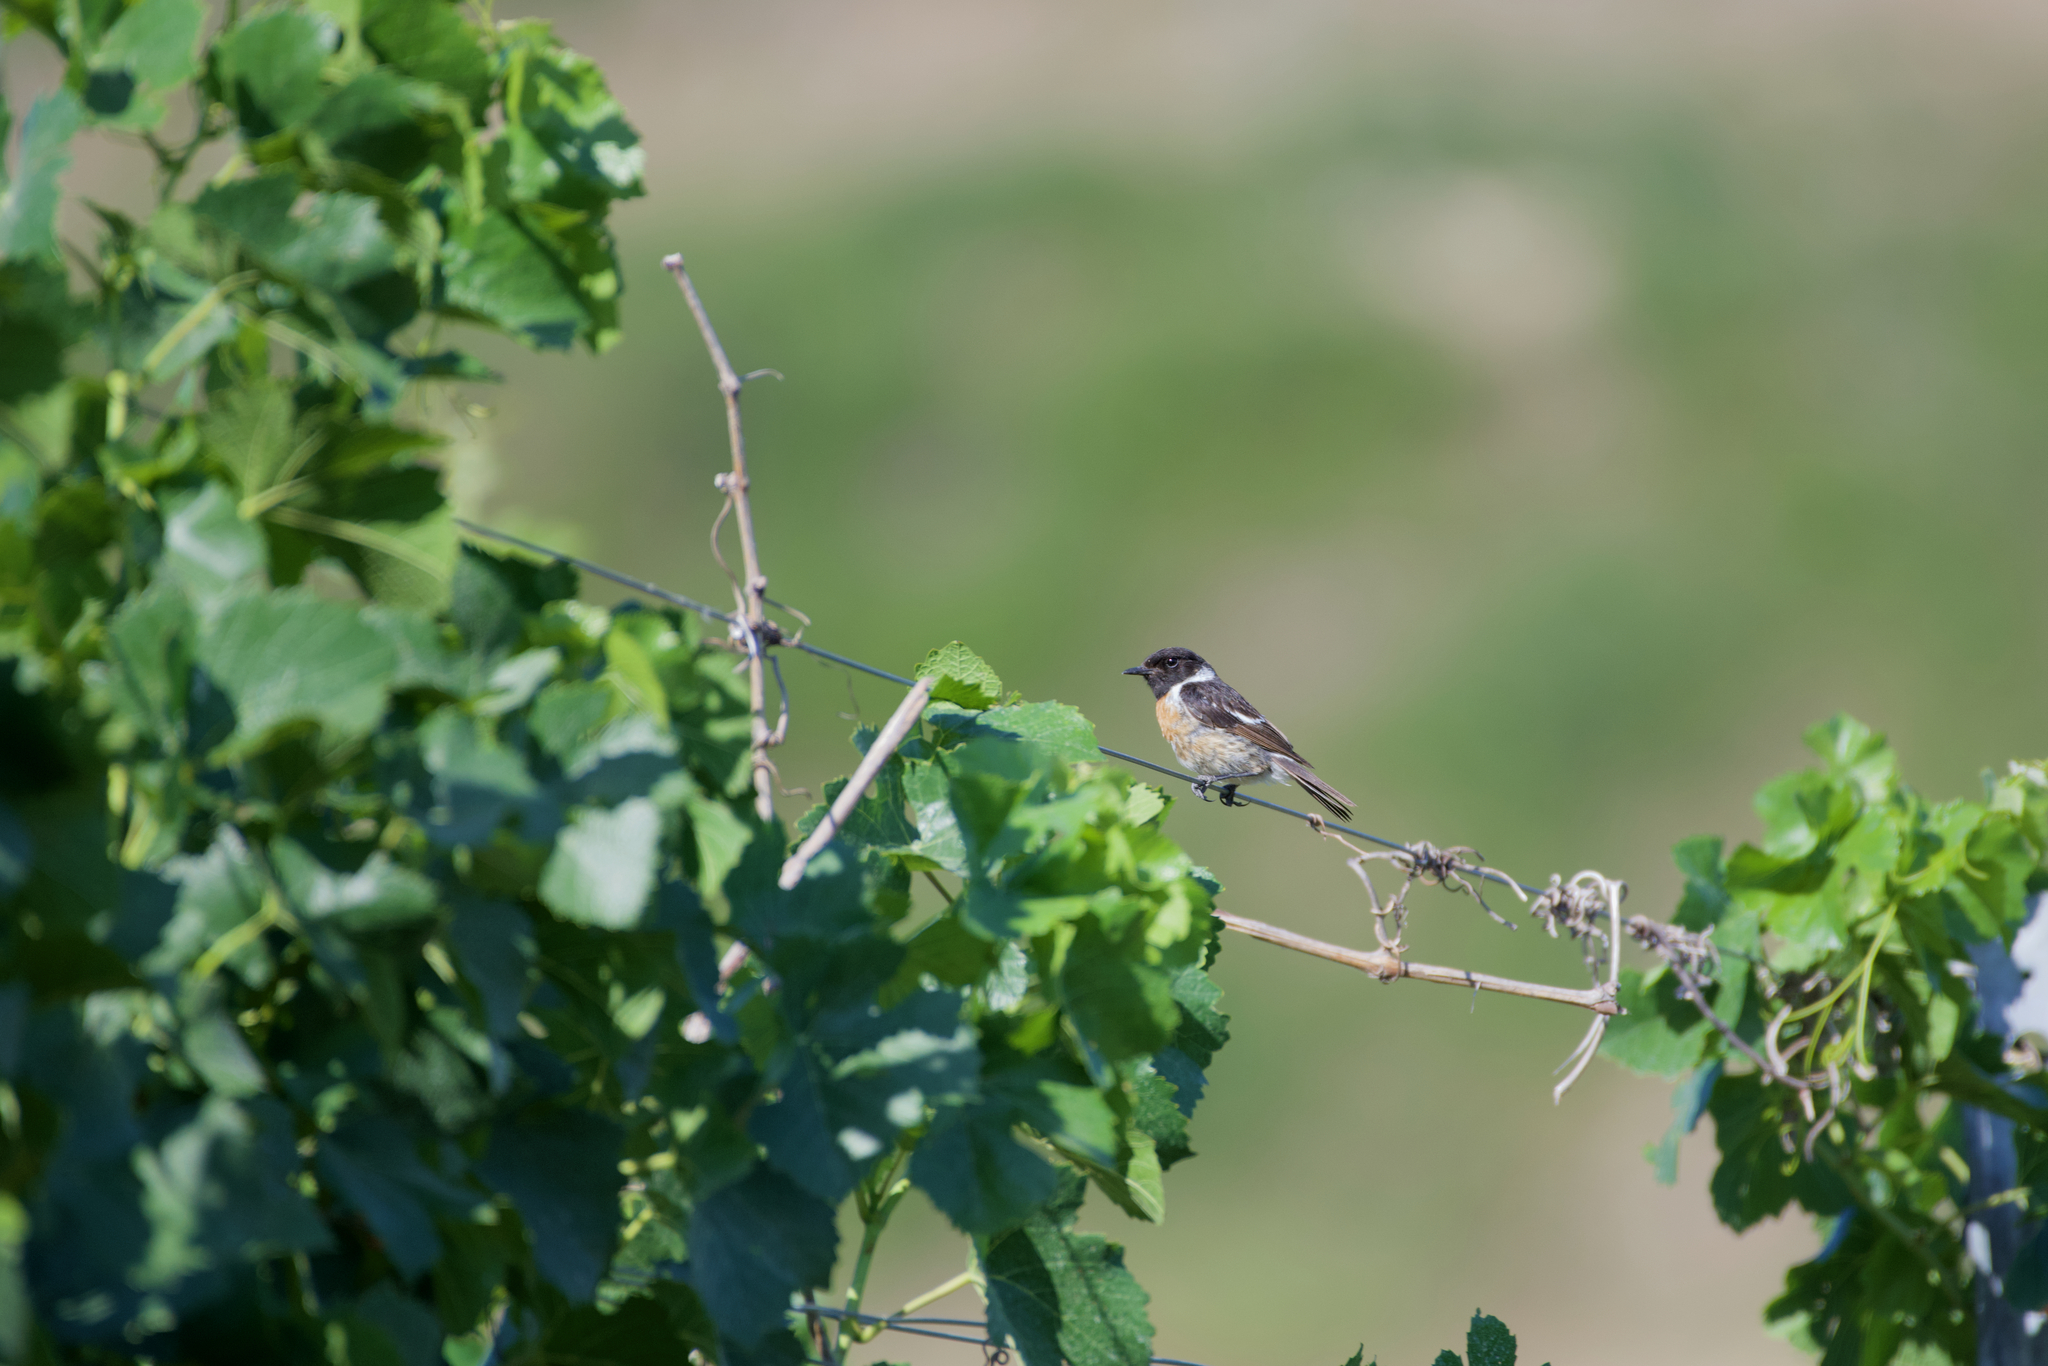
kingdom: Animalia
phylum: Chordata
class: Aves
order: Passeriformes
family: Muscicapidae
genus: Saxicola
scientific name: Saxicola rubicola
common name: European stonechat
